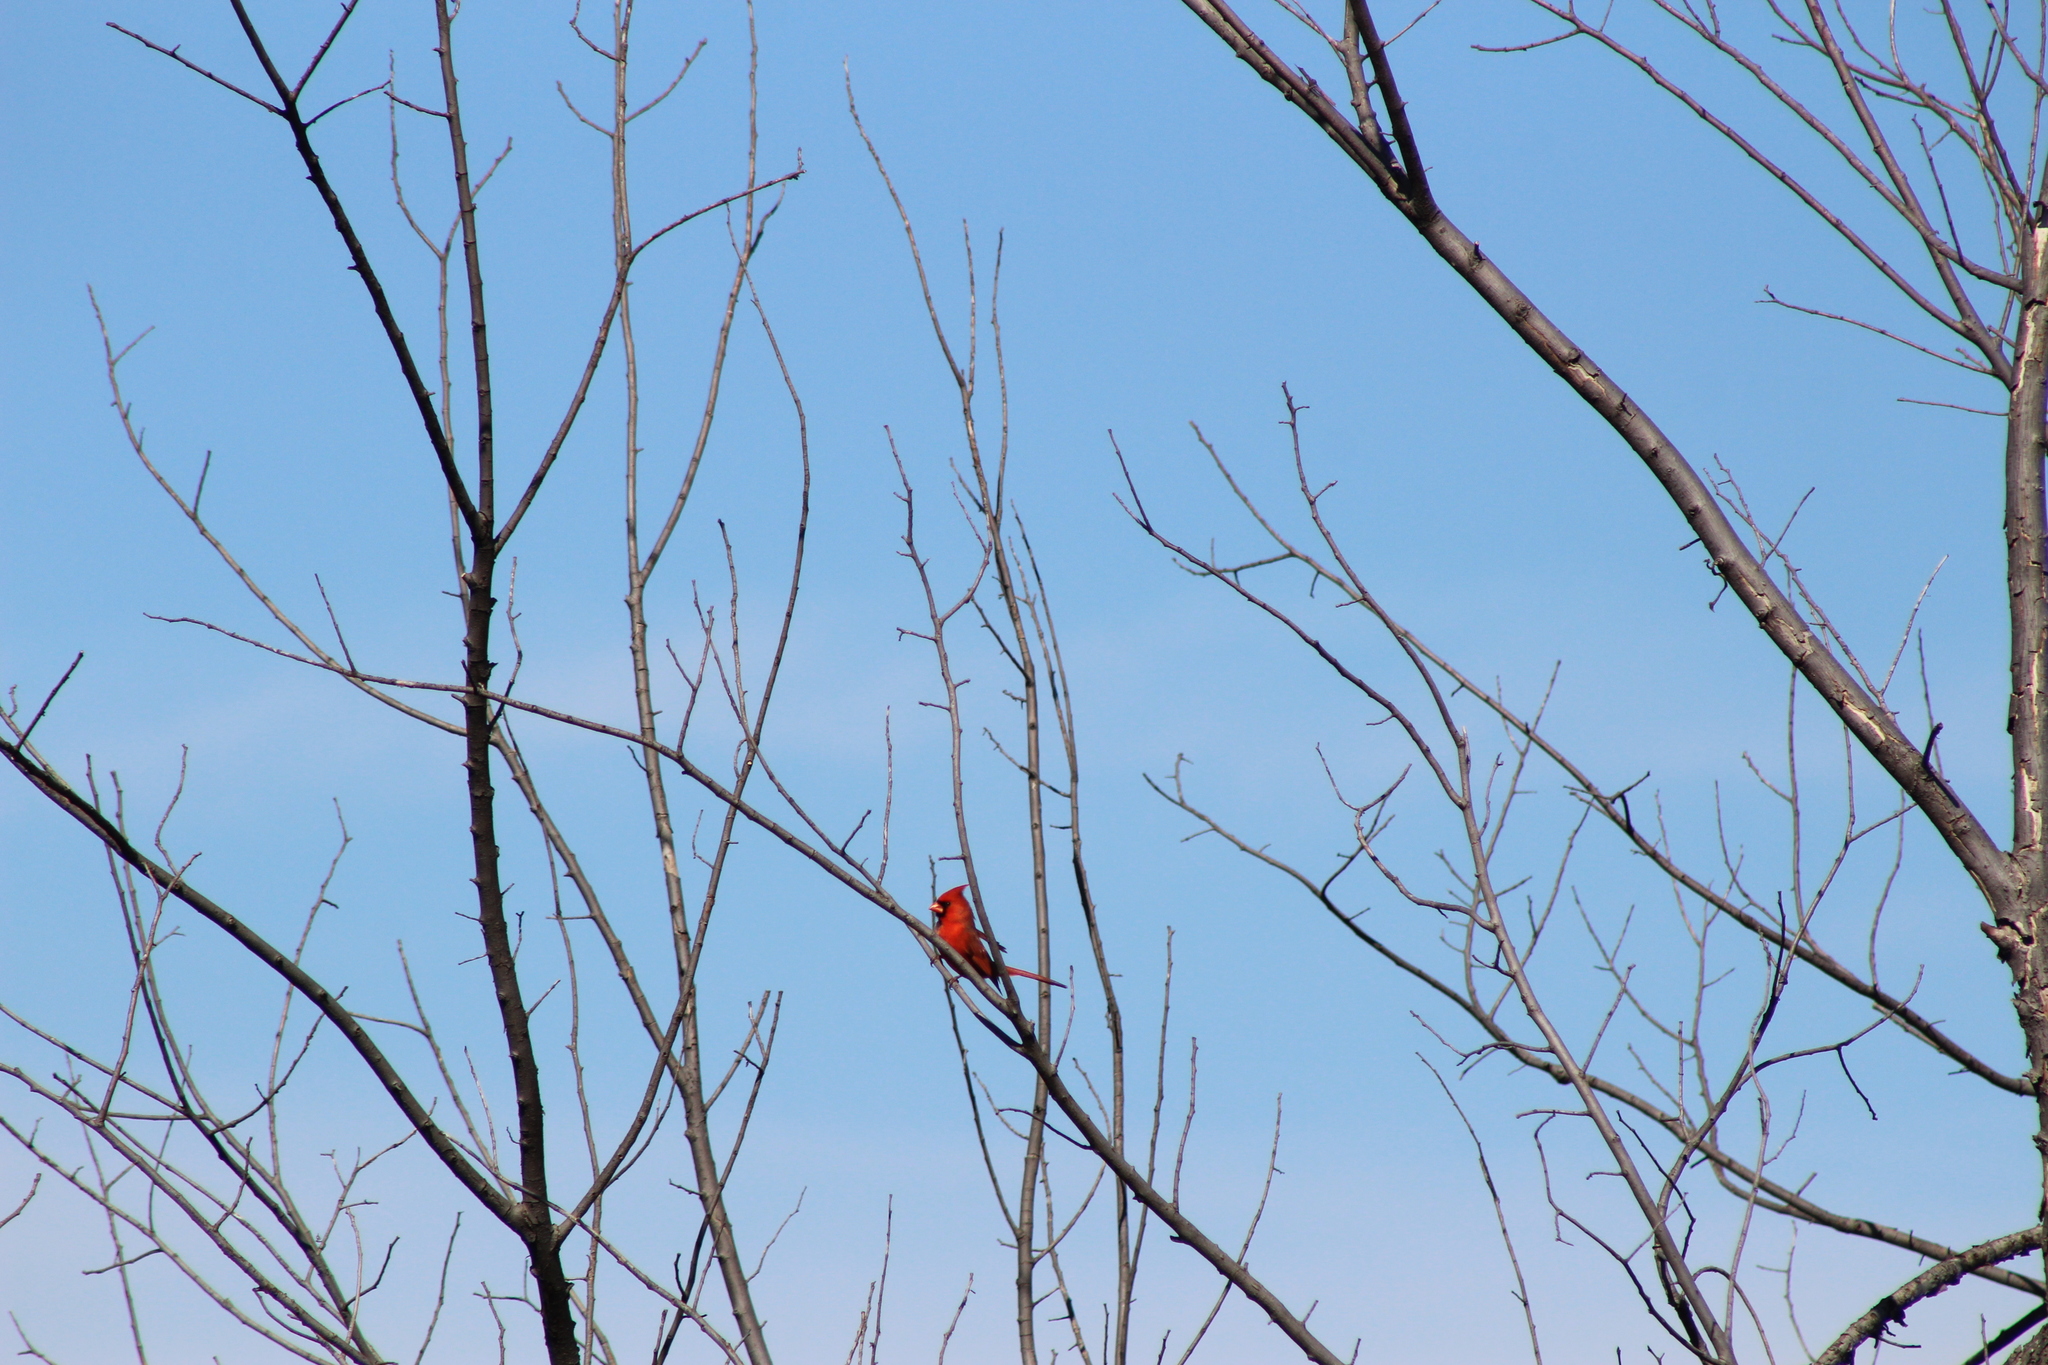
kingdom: Animalia
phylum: Chordata
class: Aves
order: Passeriformes
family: Cardinalidae
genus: Cardinalis
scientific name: Cardinalis cardinalis
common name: Northern cardinal
